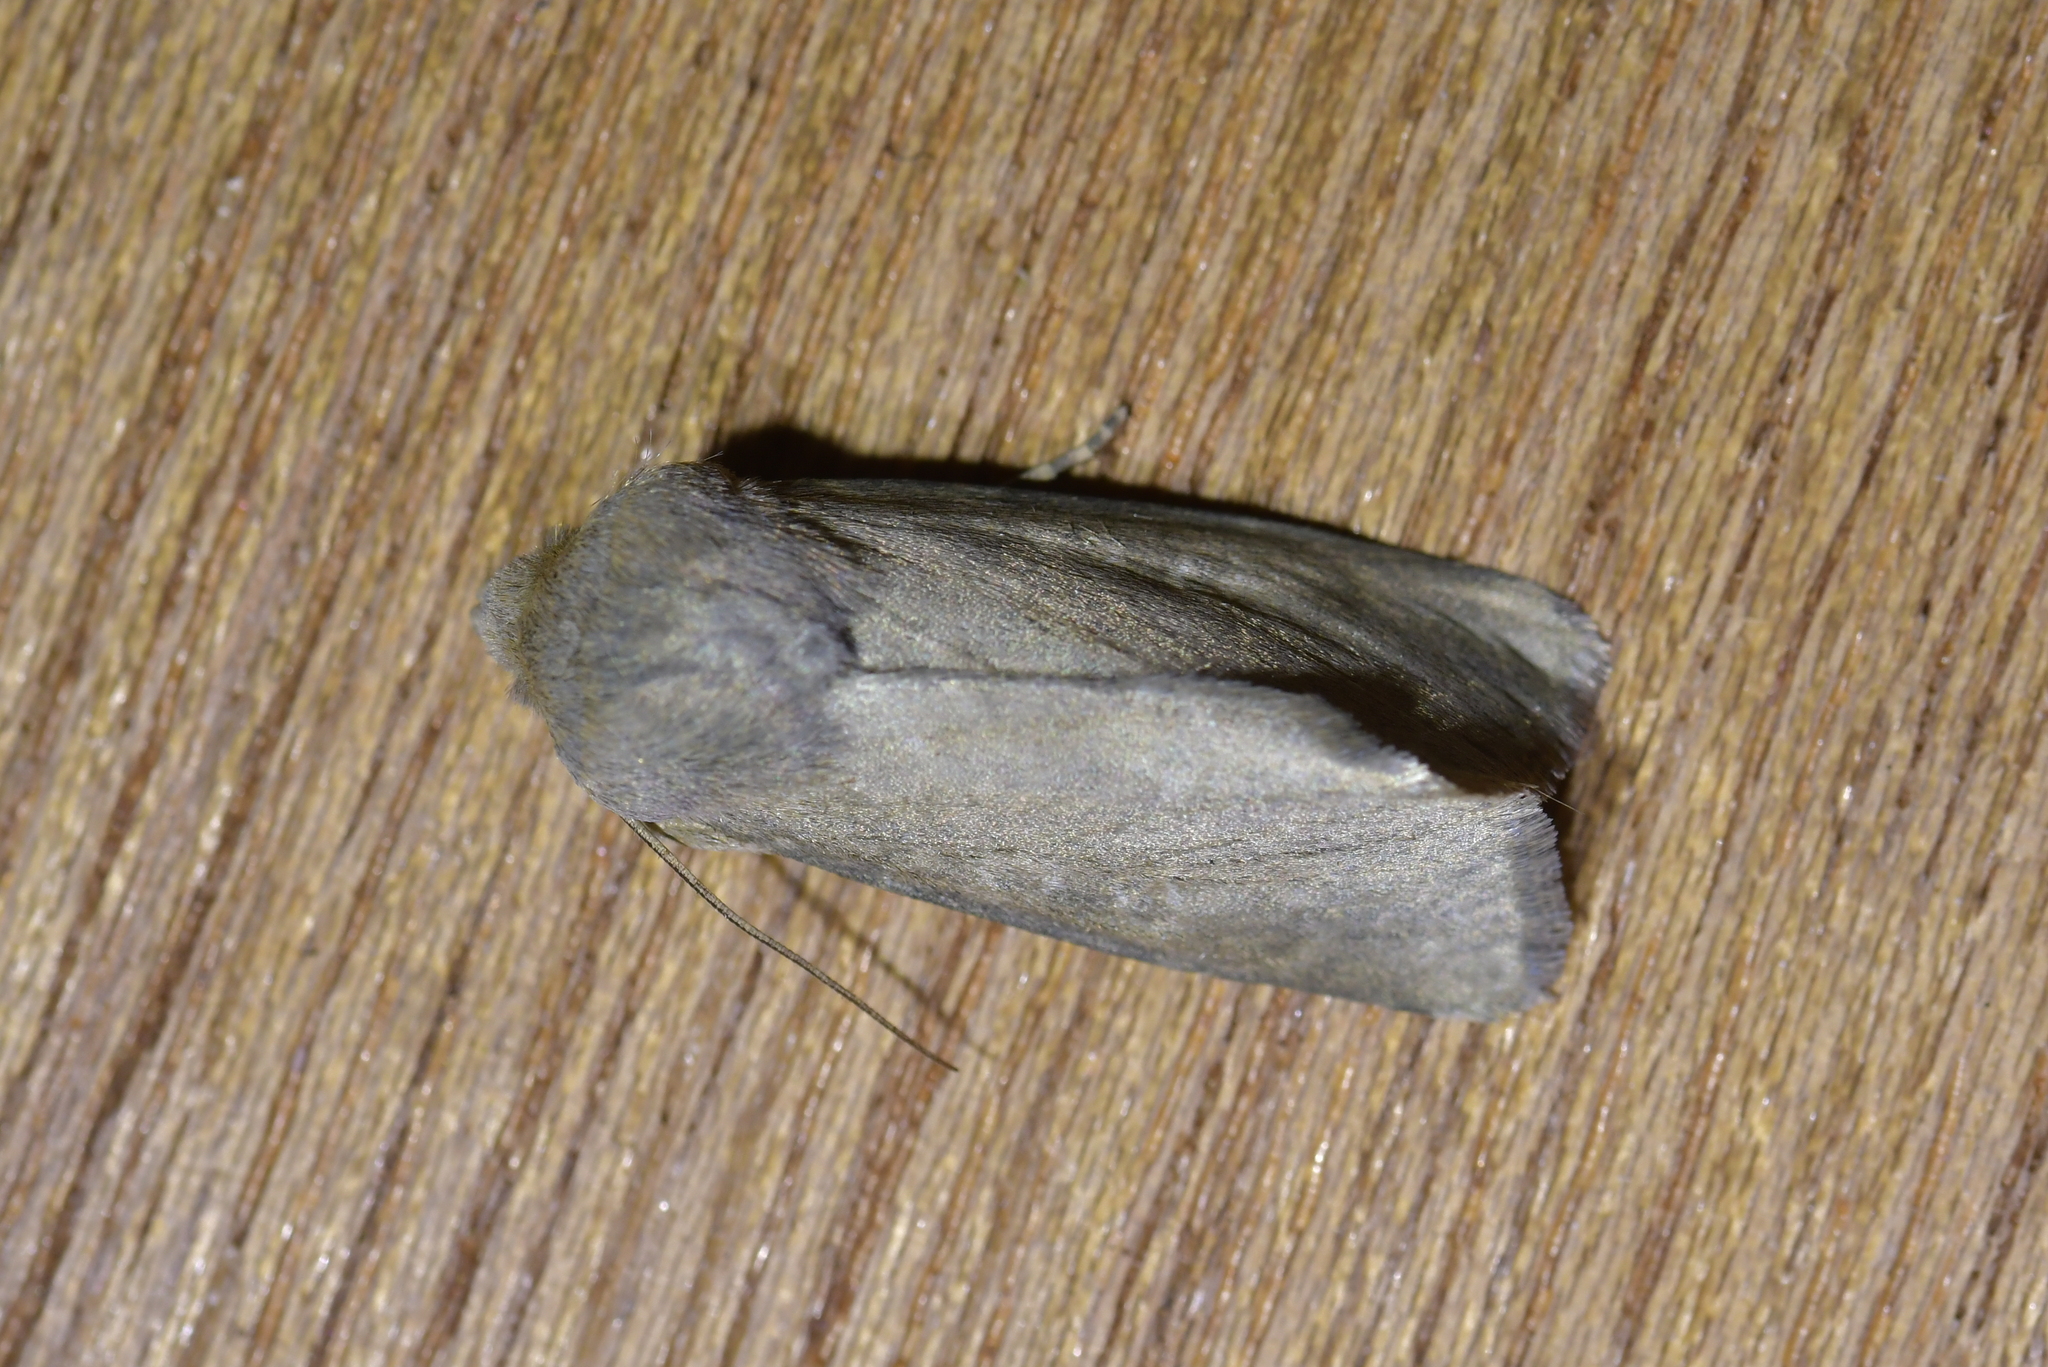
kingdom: Animalia
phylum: Arthropoda
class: Insecta
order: Lepidoptera
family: Noctuidae
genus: Physetica
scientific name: Physetica caerulea
